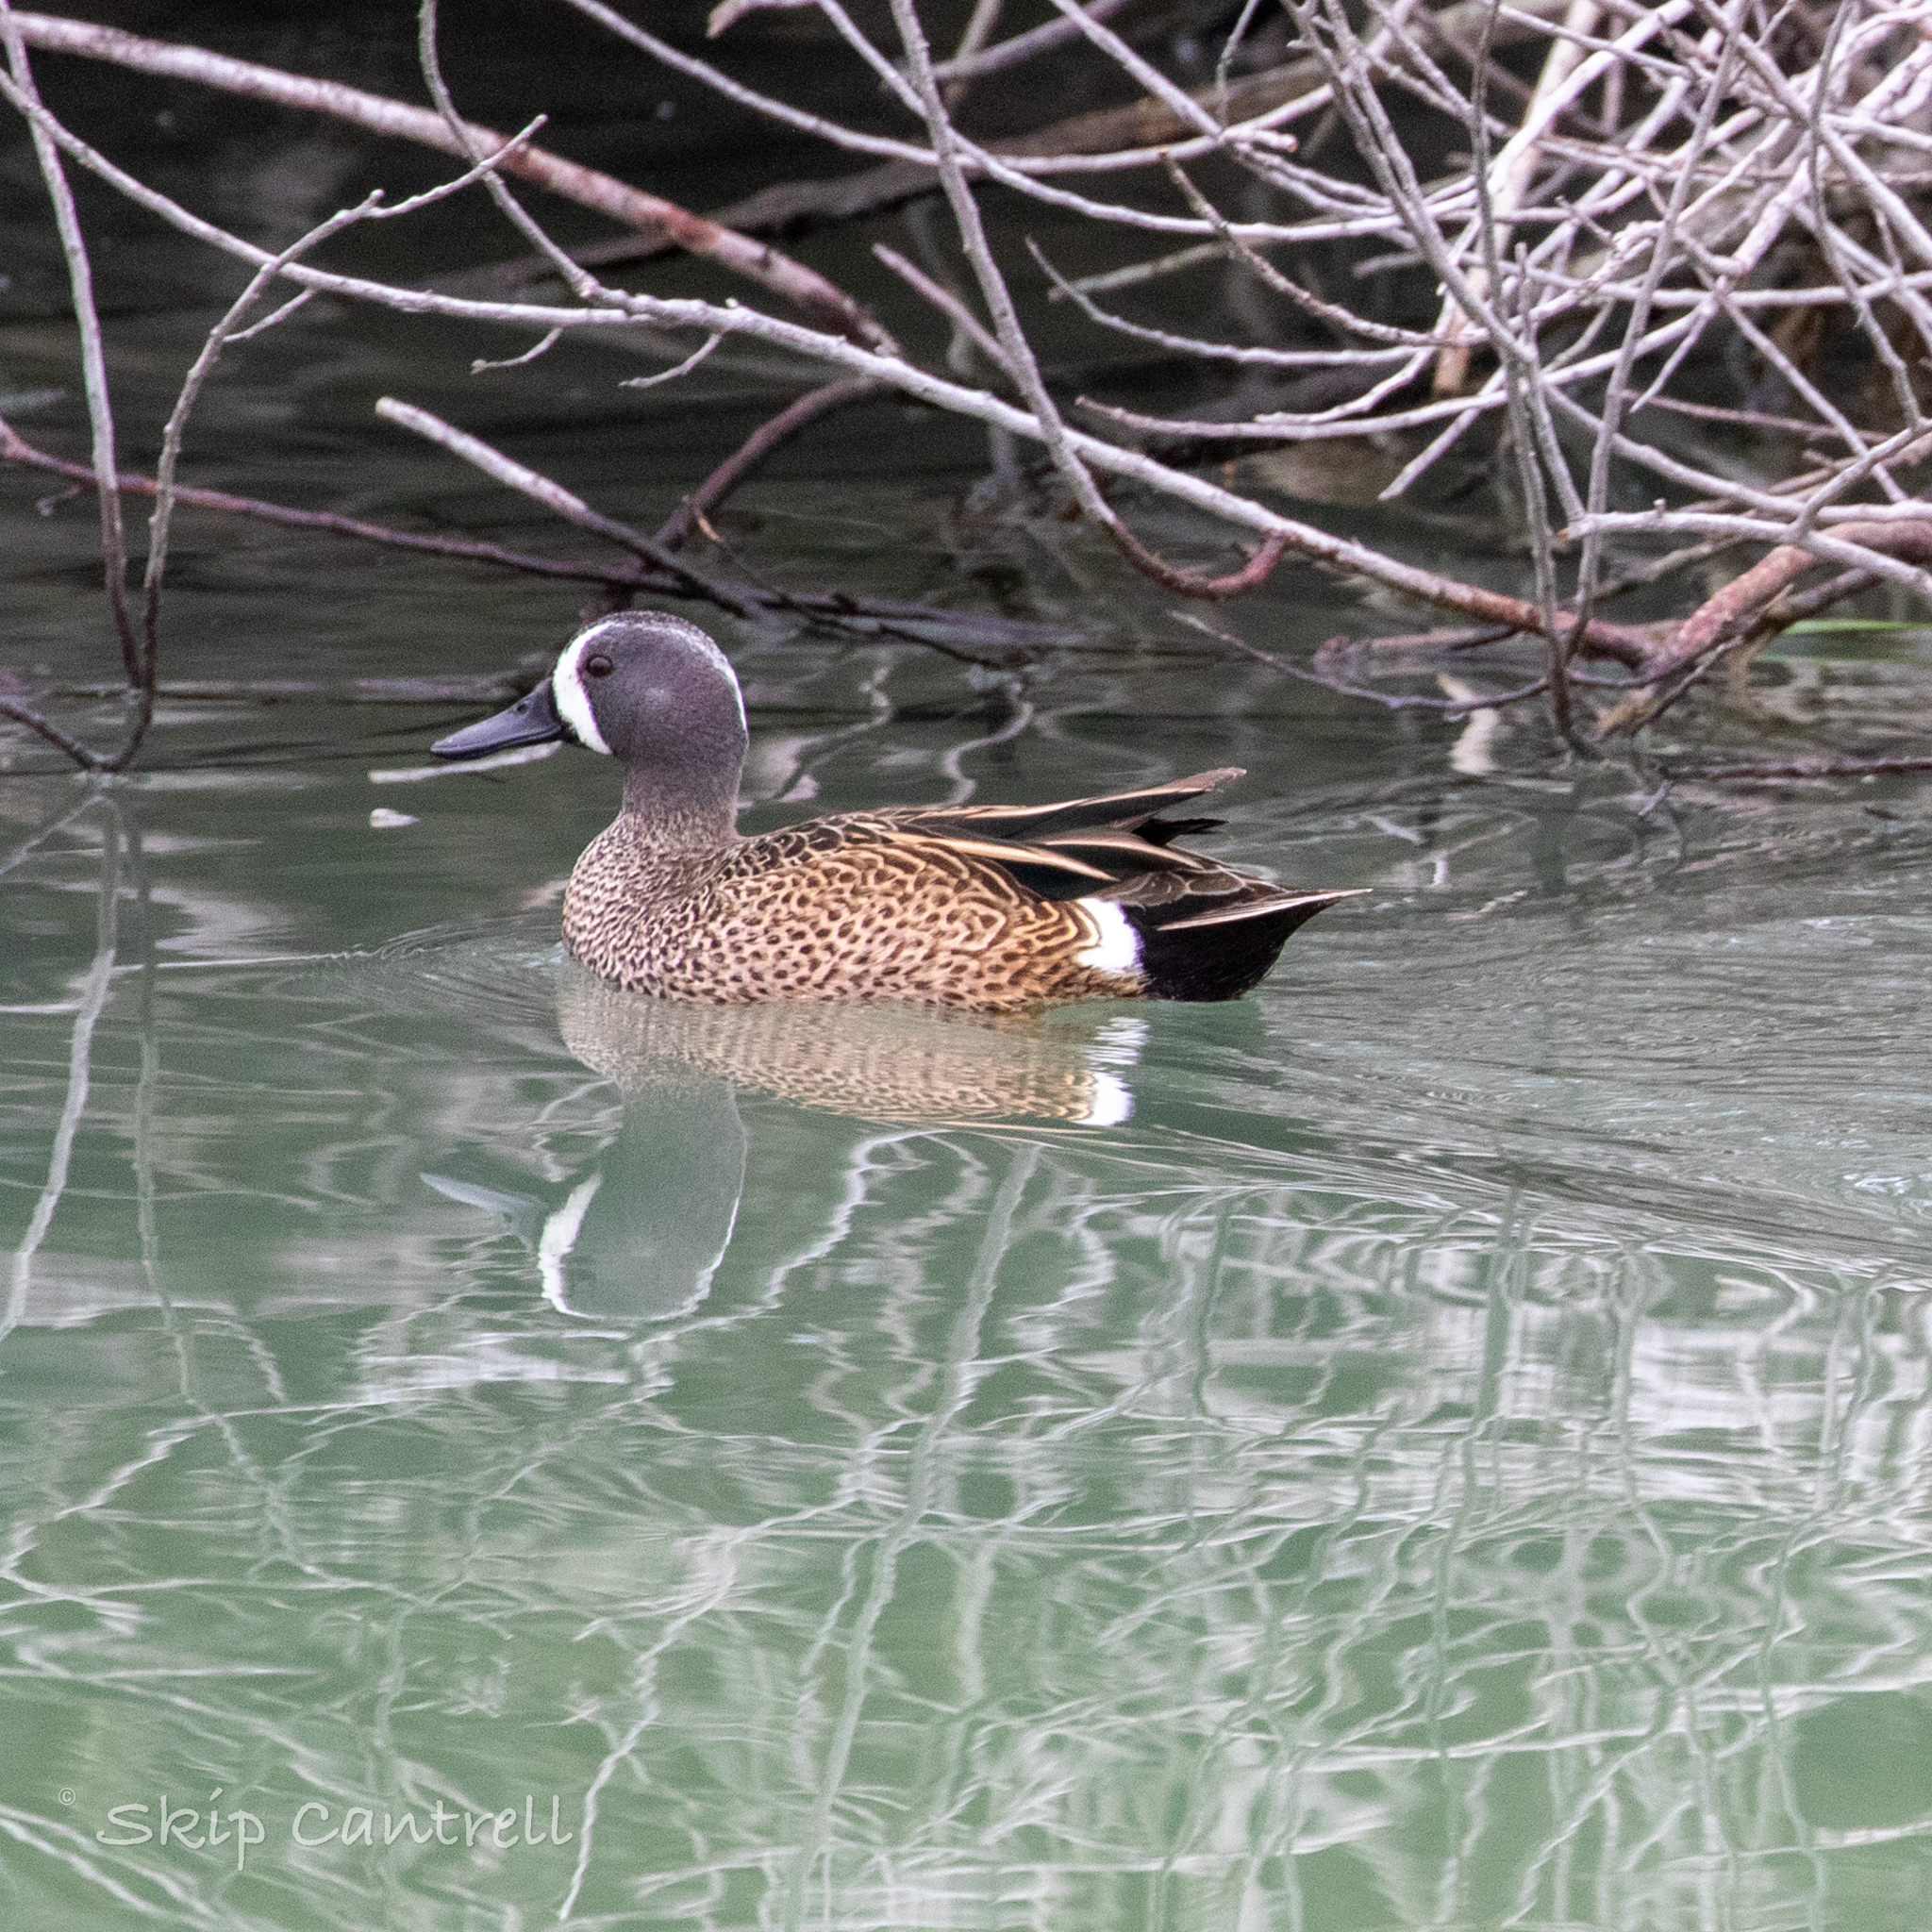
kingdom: Animalia
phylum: Chordata
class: Aves
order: Anseriformes
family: Anatidae
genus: Spatula
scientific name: Spatula discors
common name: Blue-winged teal
